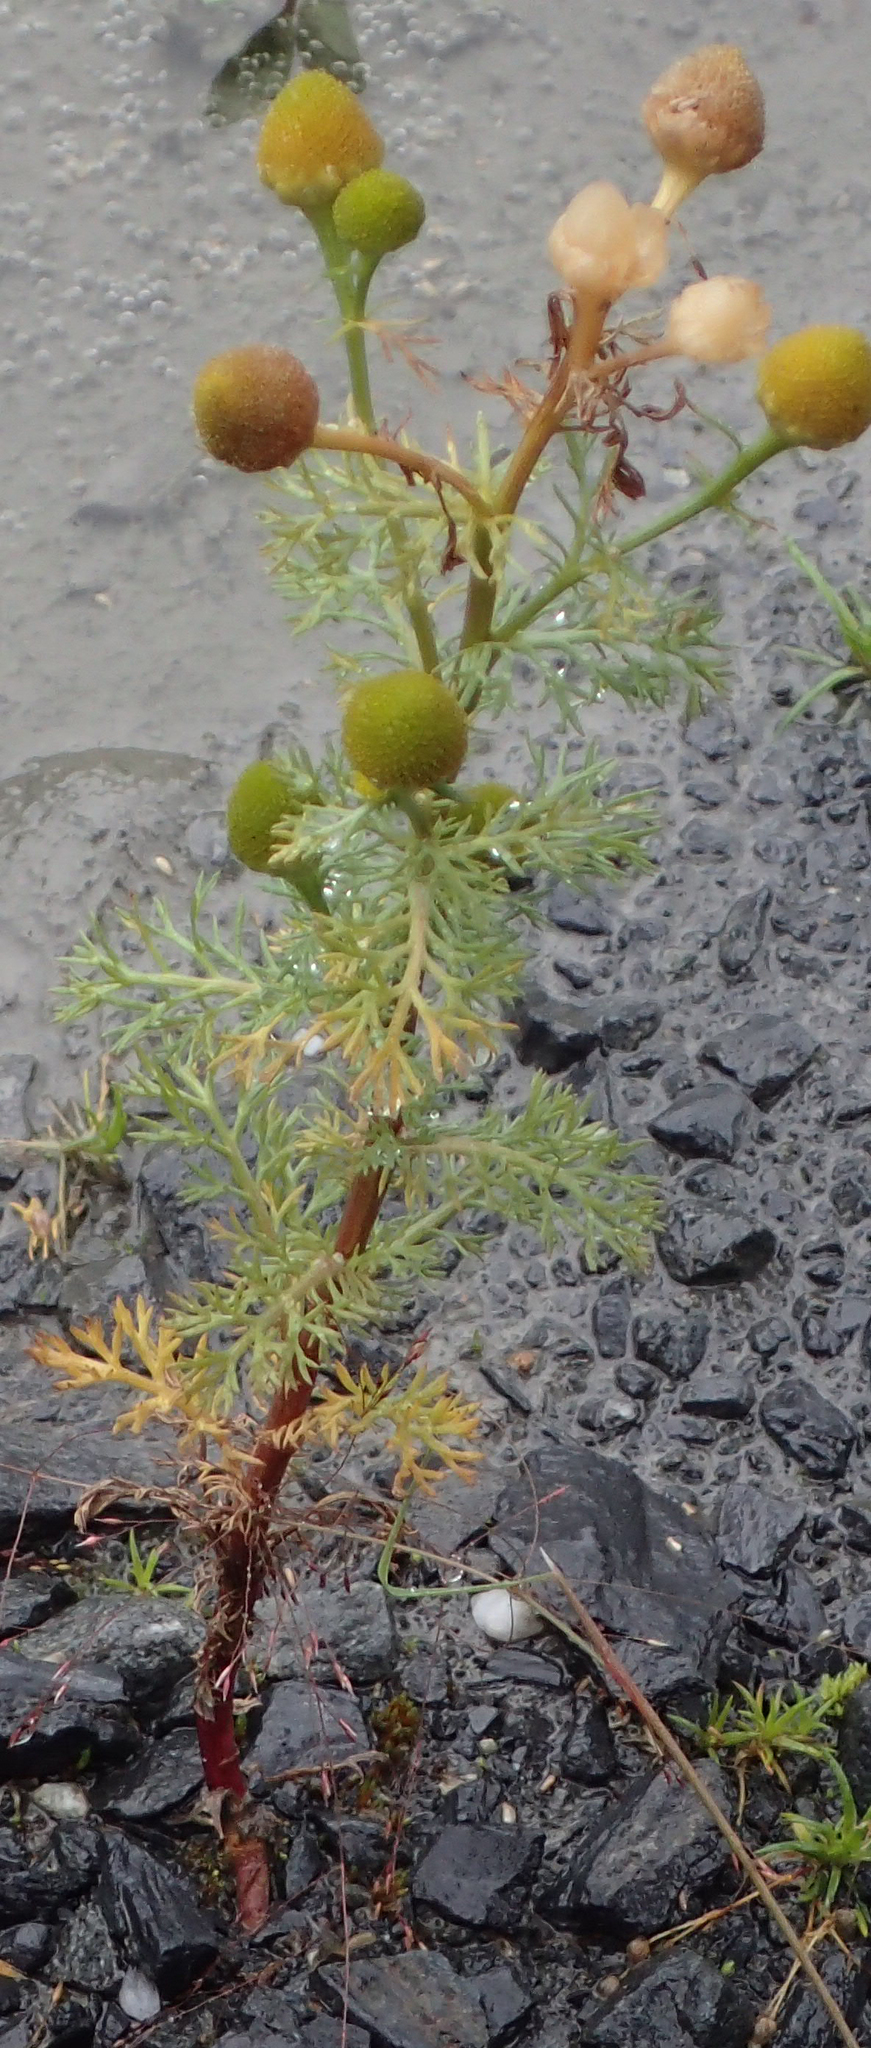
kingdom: Plantae
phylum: Tracheophyta
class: Magnoliopsida
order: Asterales
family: Asteraceae
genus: Matricaria
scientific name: Matricaria discoidea
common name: Disc mayweed
